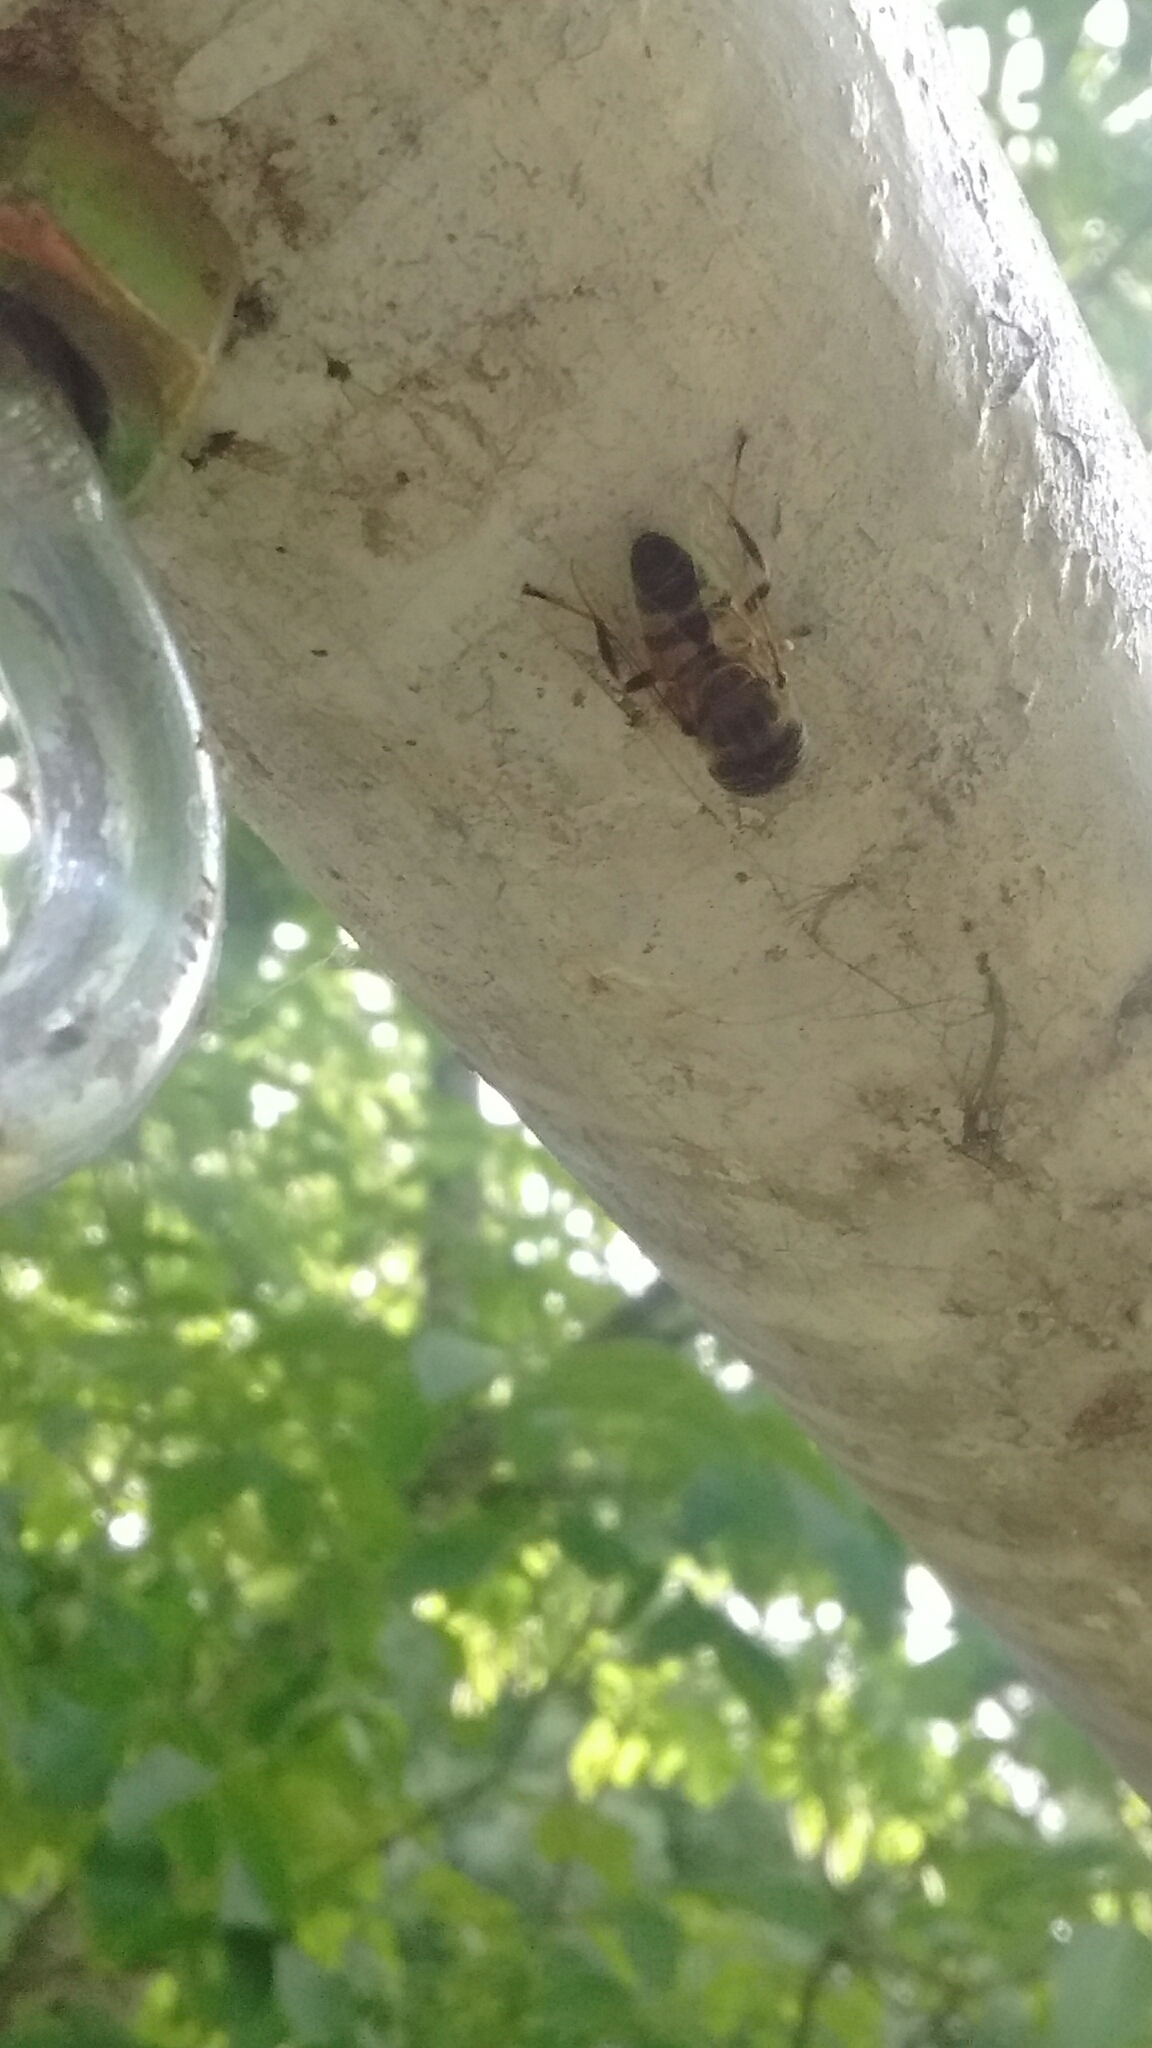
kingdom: Animalia
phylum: Arthropoda
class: Insecta
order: Diptera
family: Syrphidae
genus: Eristalinus
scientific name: Eristalinus taeniops
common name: Syrphid fly
